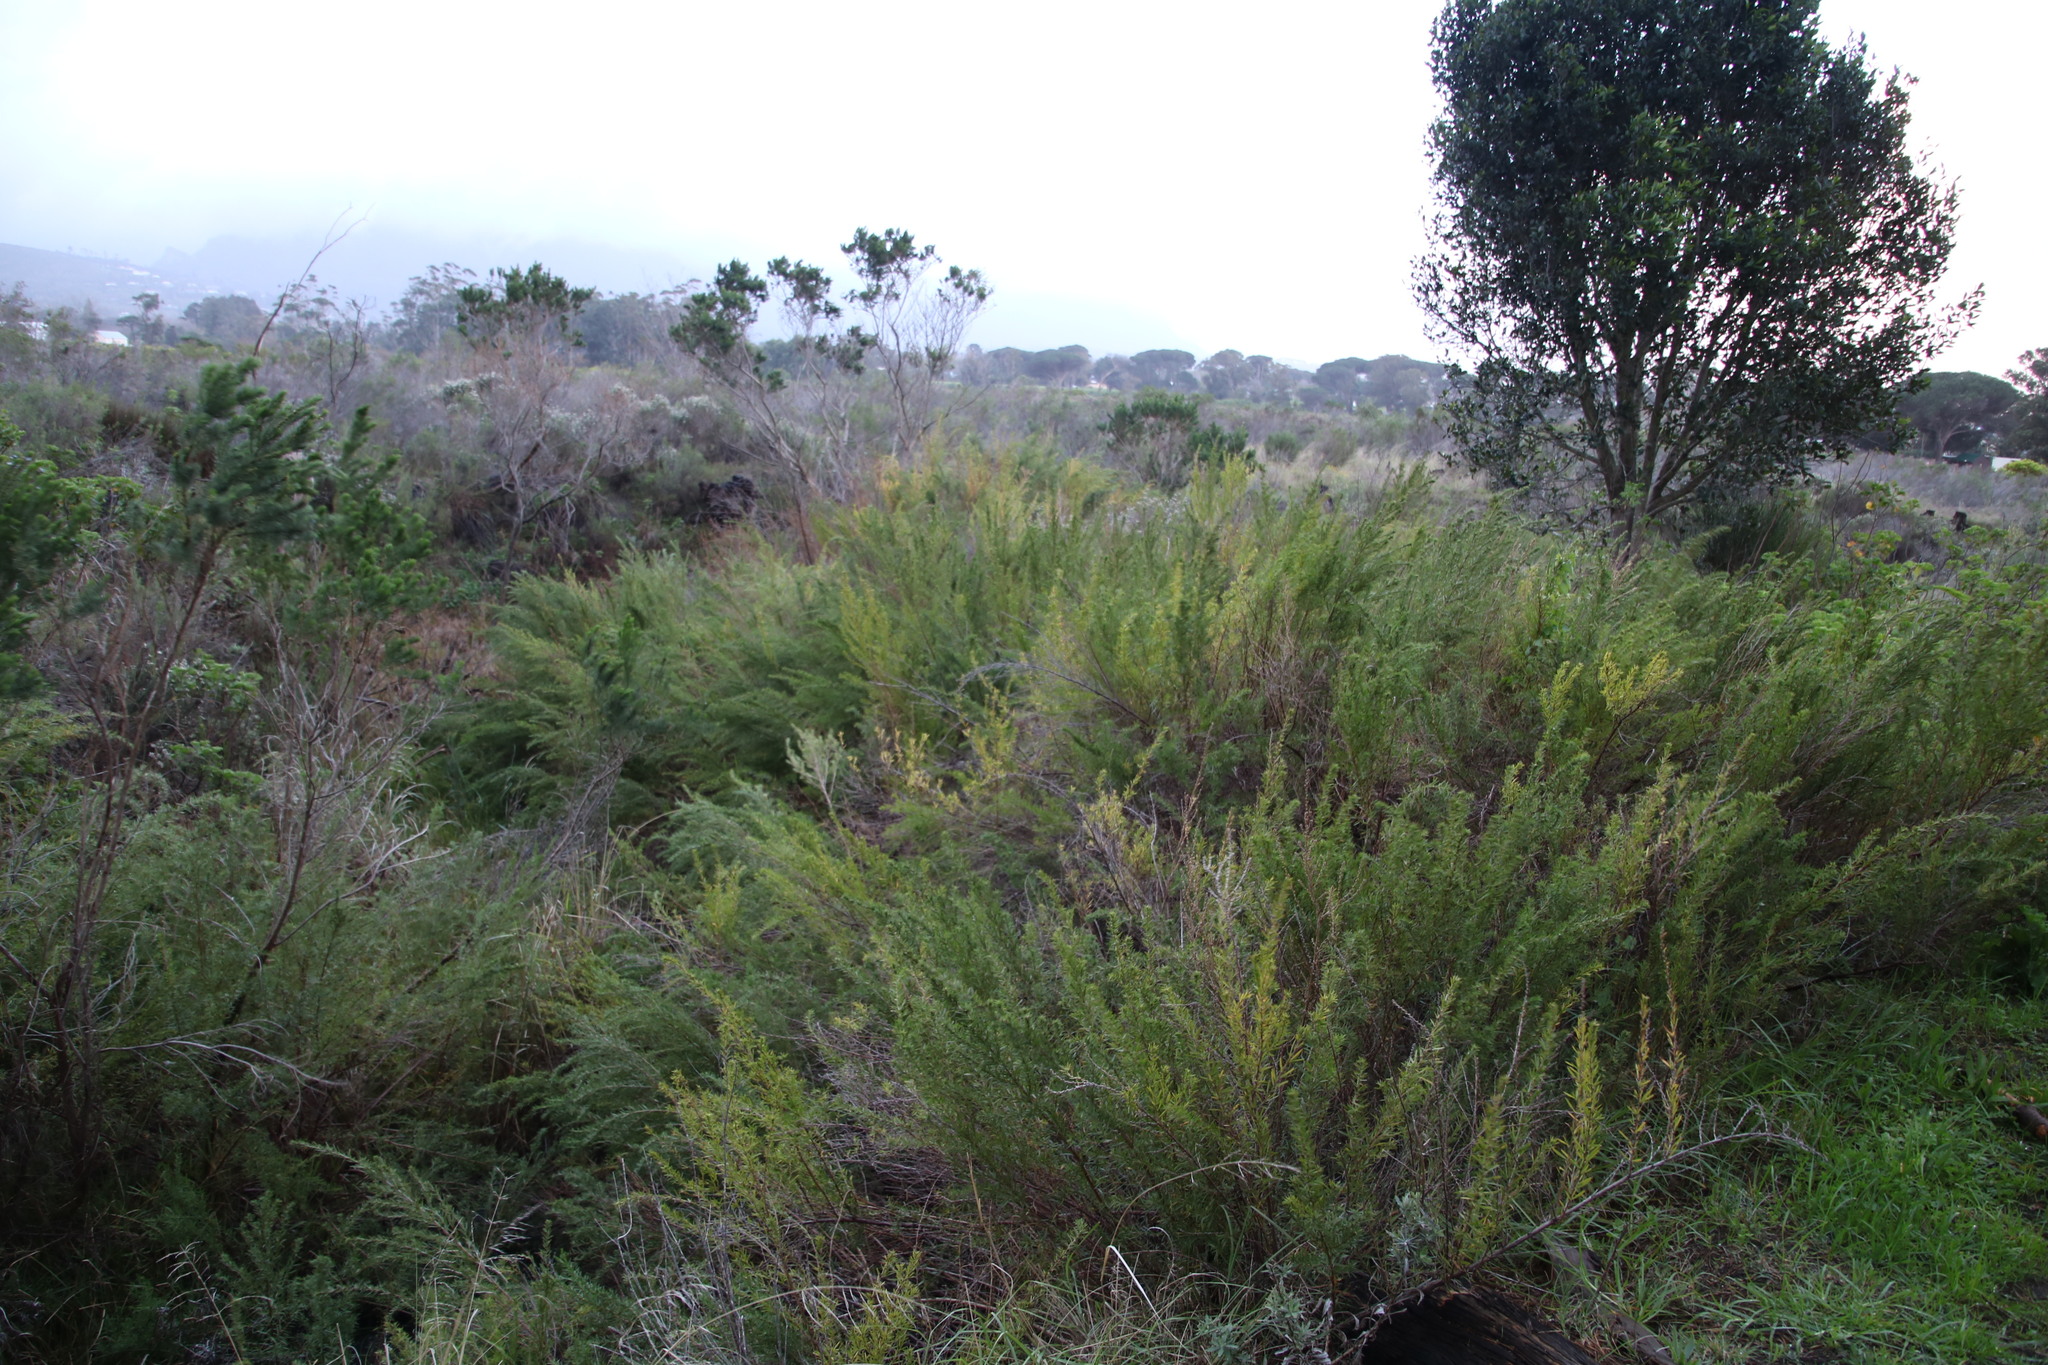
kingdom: Plantae
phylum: Tracheophyta
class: Magnoliopsida
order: Rosales
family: Rosaceae
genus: Cliffortia
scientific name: Cliffortia strobilifera
